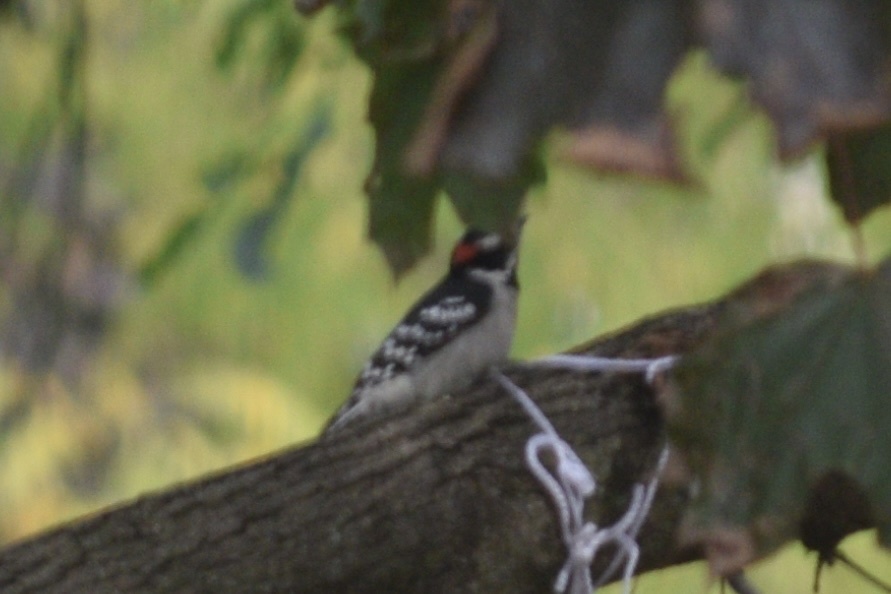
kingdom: Animalia
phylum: Chordata
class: Aves
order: Piciformes
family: Picidae
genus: Dryobates
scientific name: Dryobates pubescens
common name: Downy woodpecker
